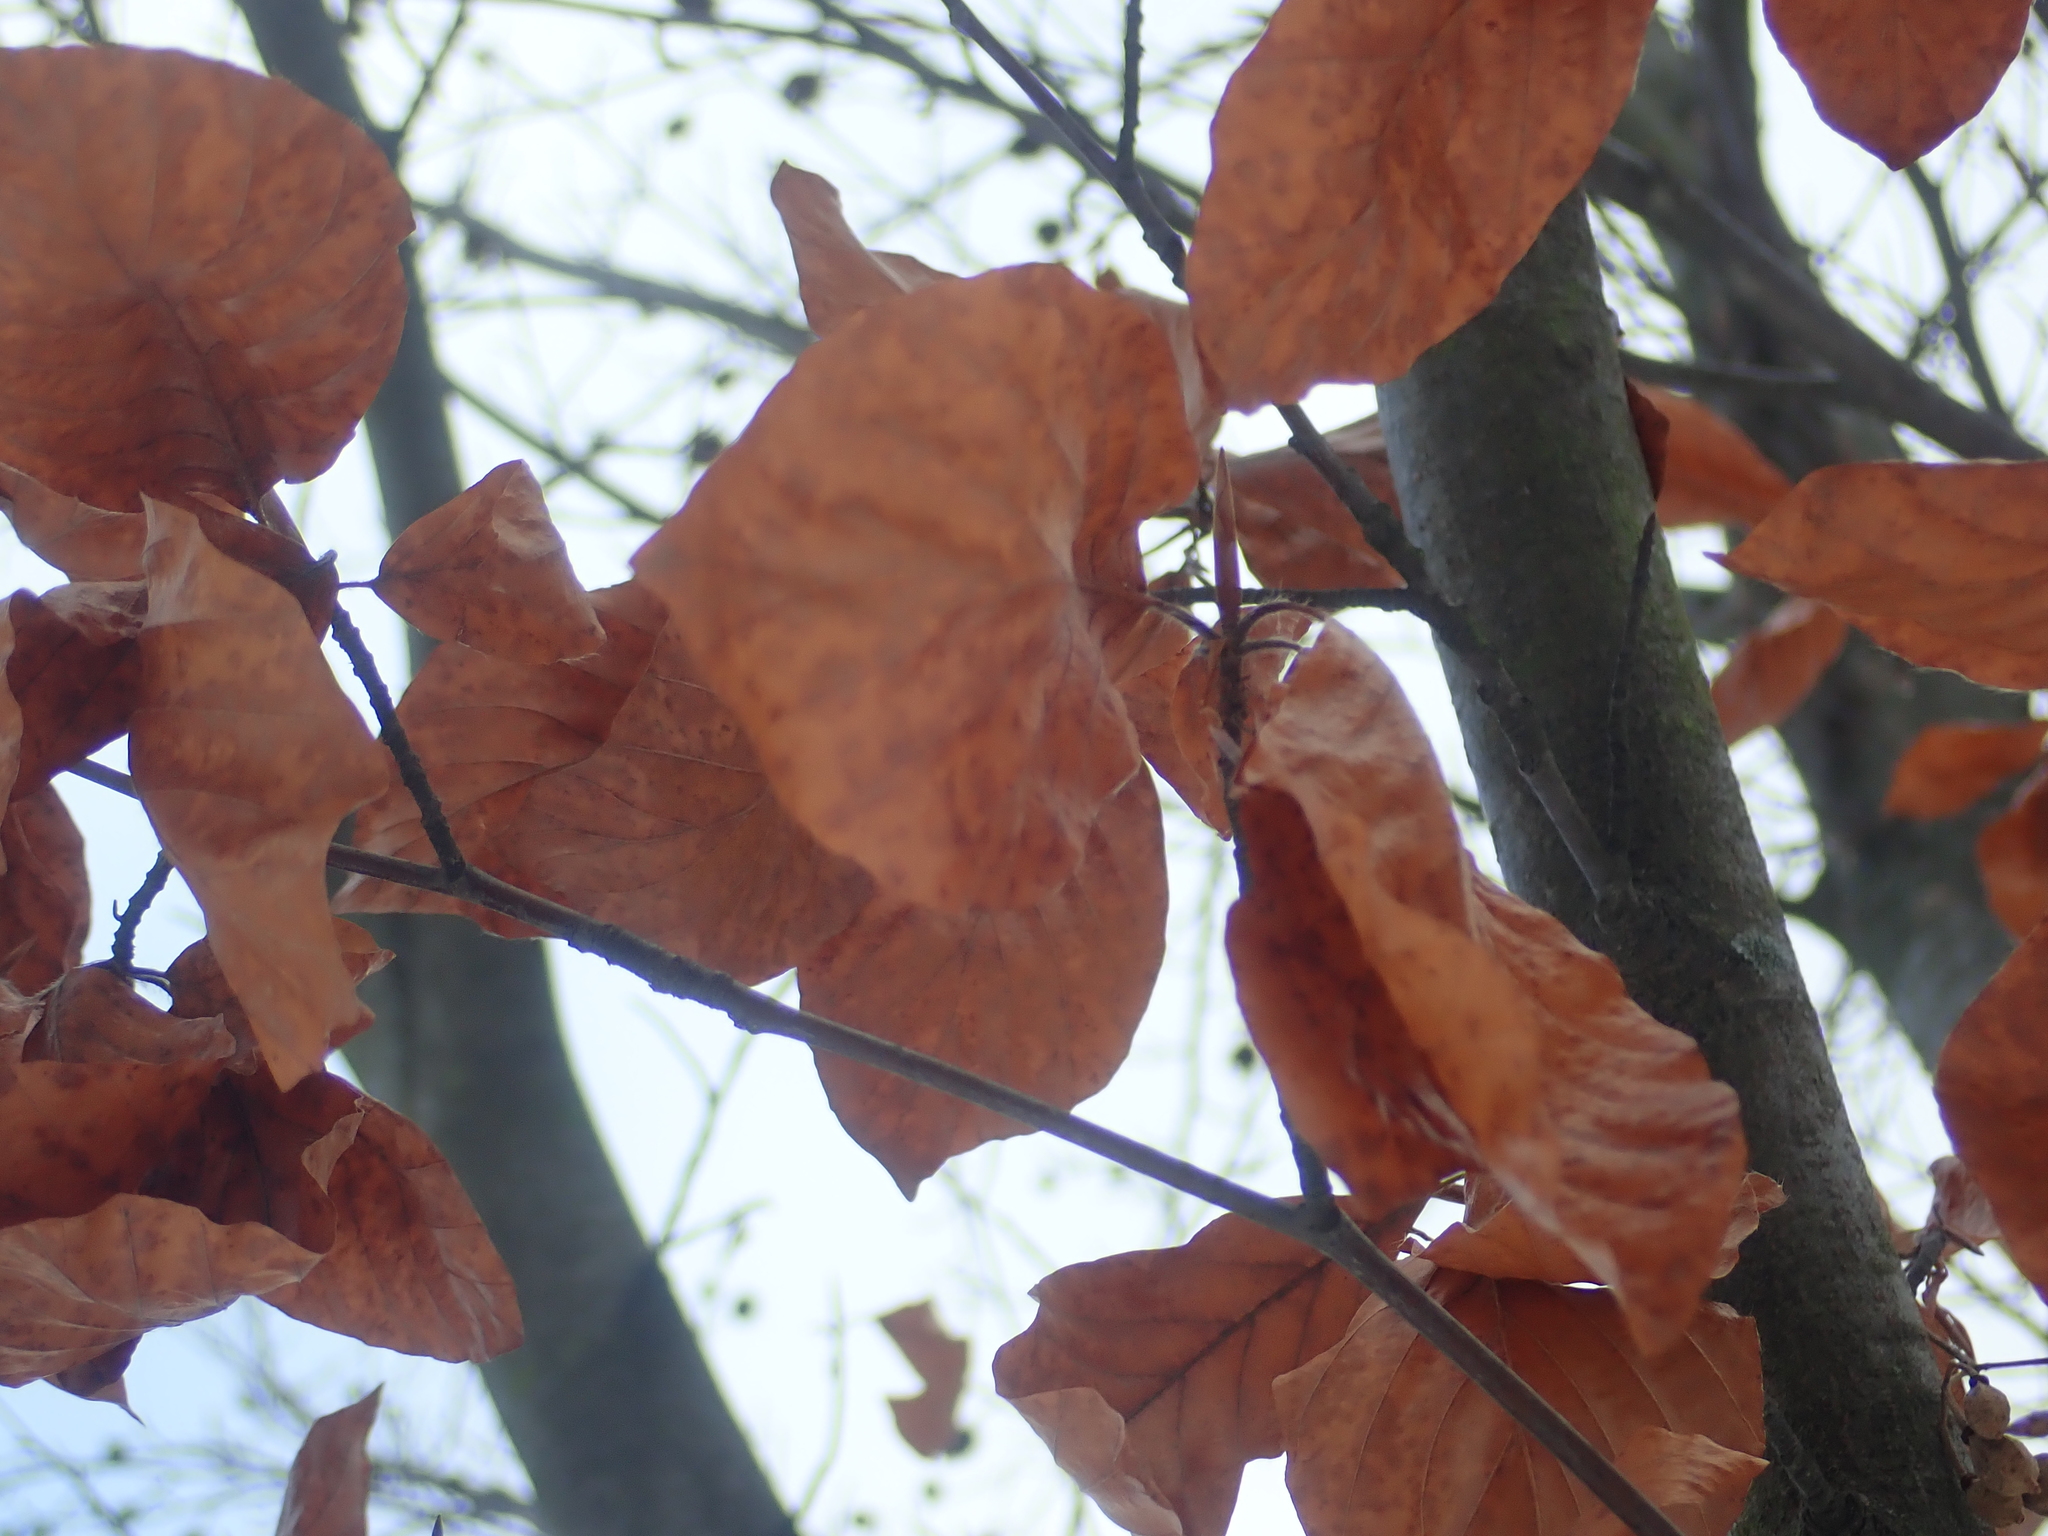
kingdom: Plantae
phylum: Tracheophyta
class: Magnoliopsida
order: Fagales
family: Fagaceae
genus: Fagus
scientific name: Fagus sylvatica
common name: Beech
